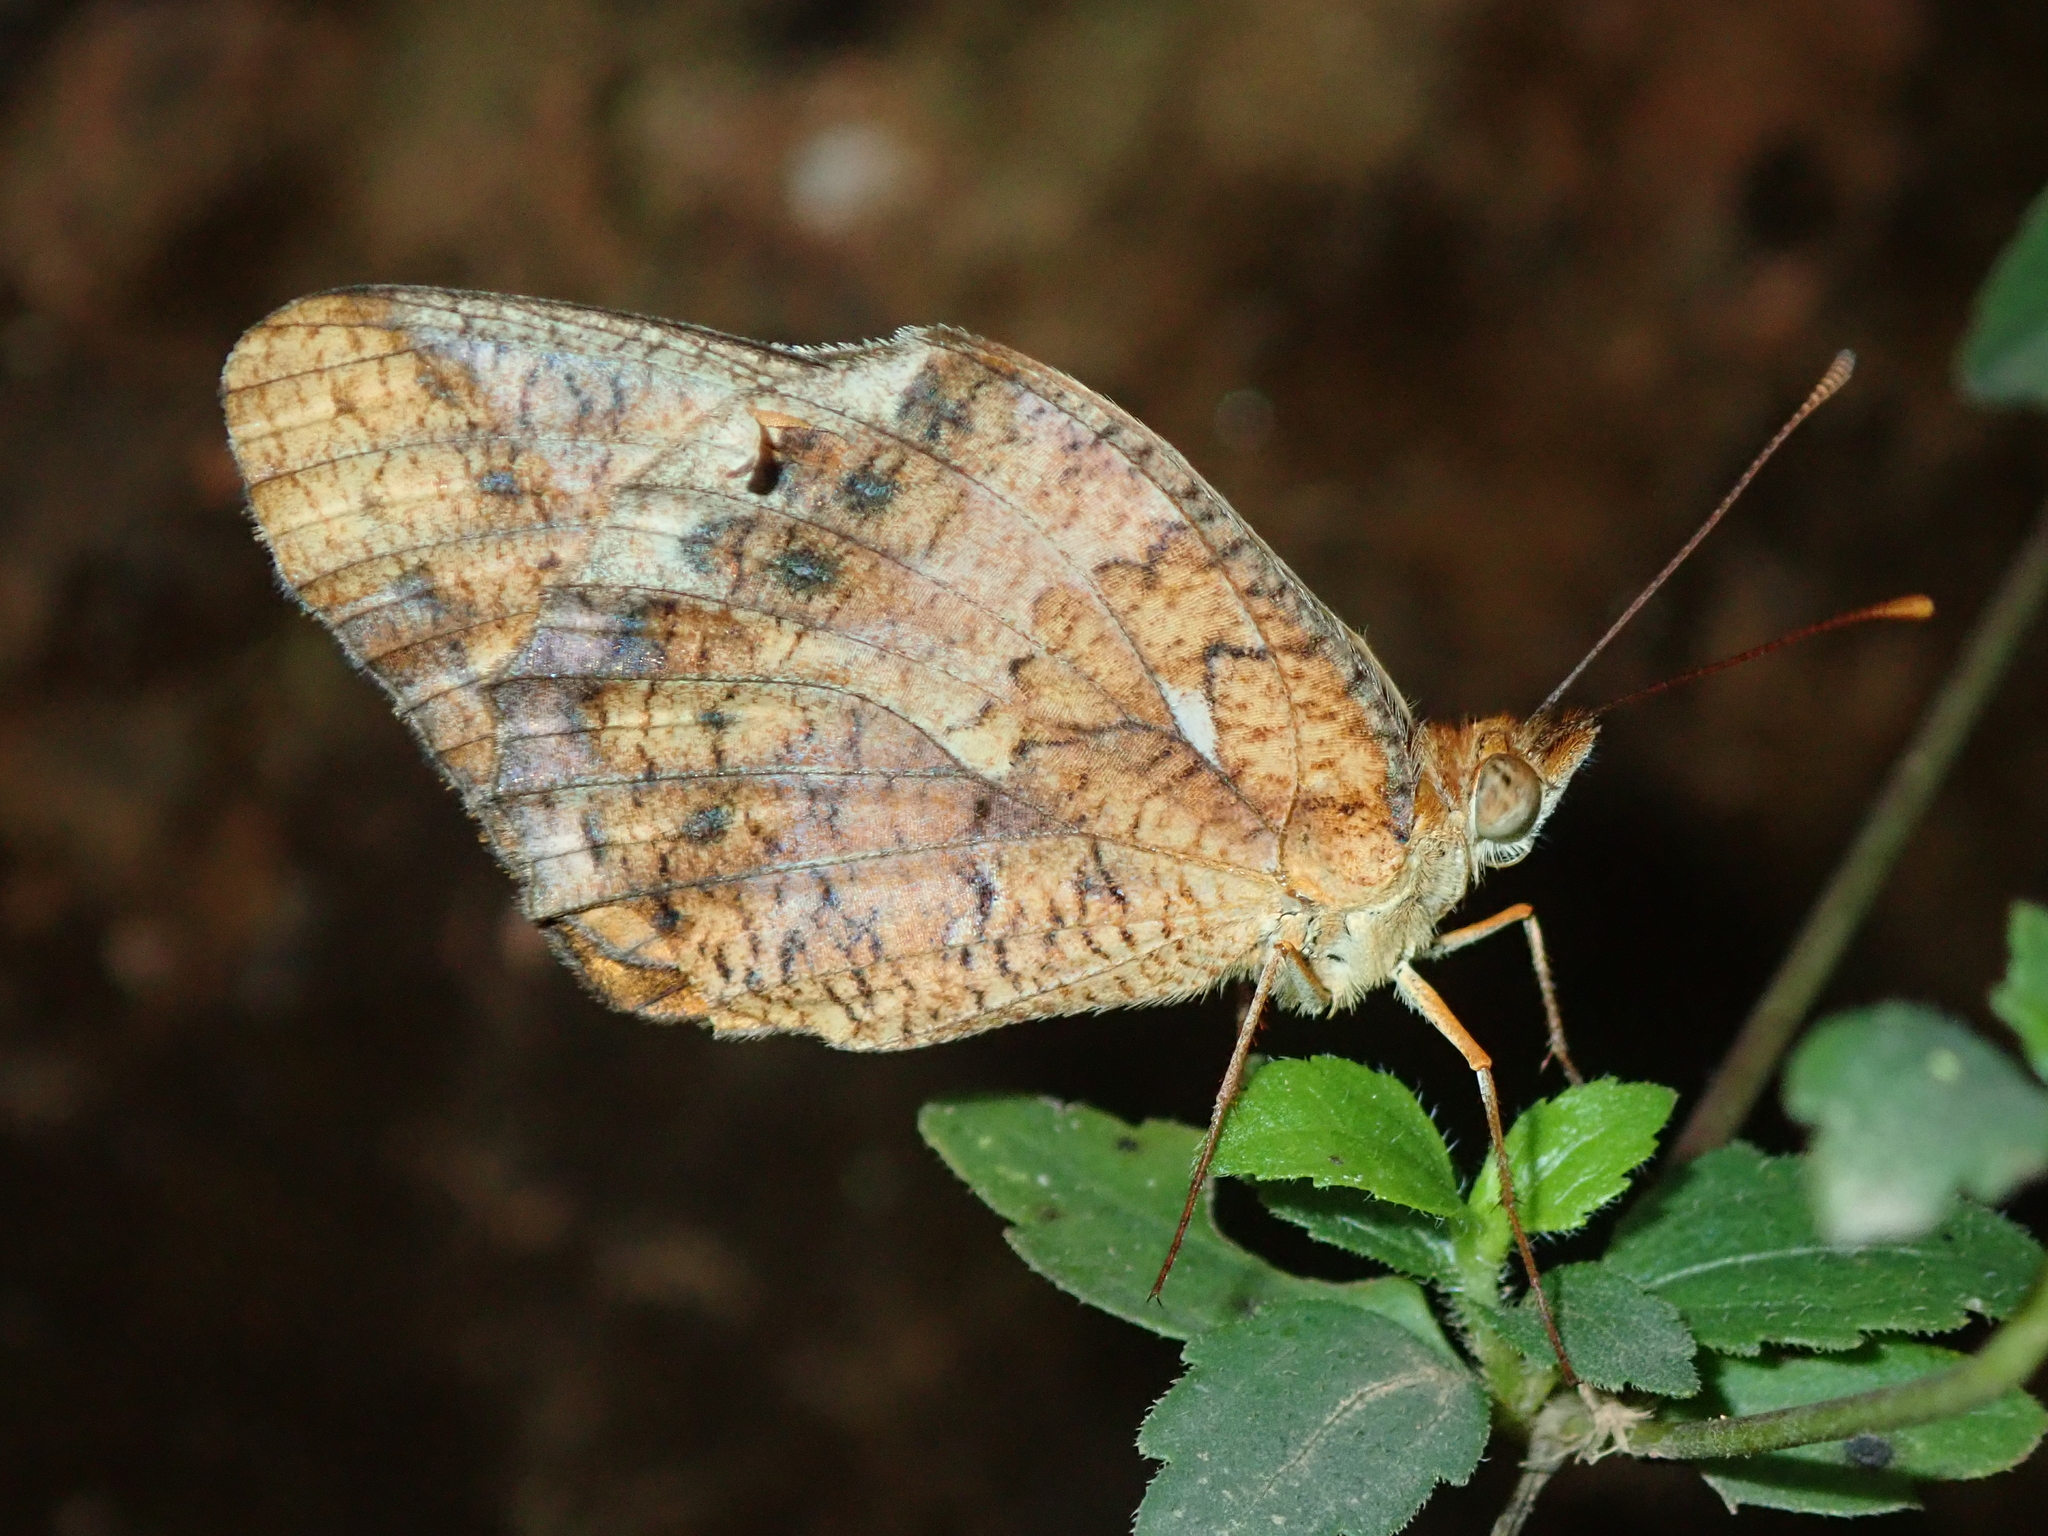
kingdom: Animalia
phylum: Arthropoda
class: Insecta
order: Lepidoptera
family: Nymphalidae
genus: Euptoieta
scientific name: Euptoieta hegesia
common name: Mexican fritillary
